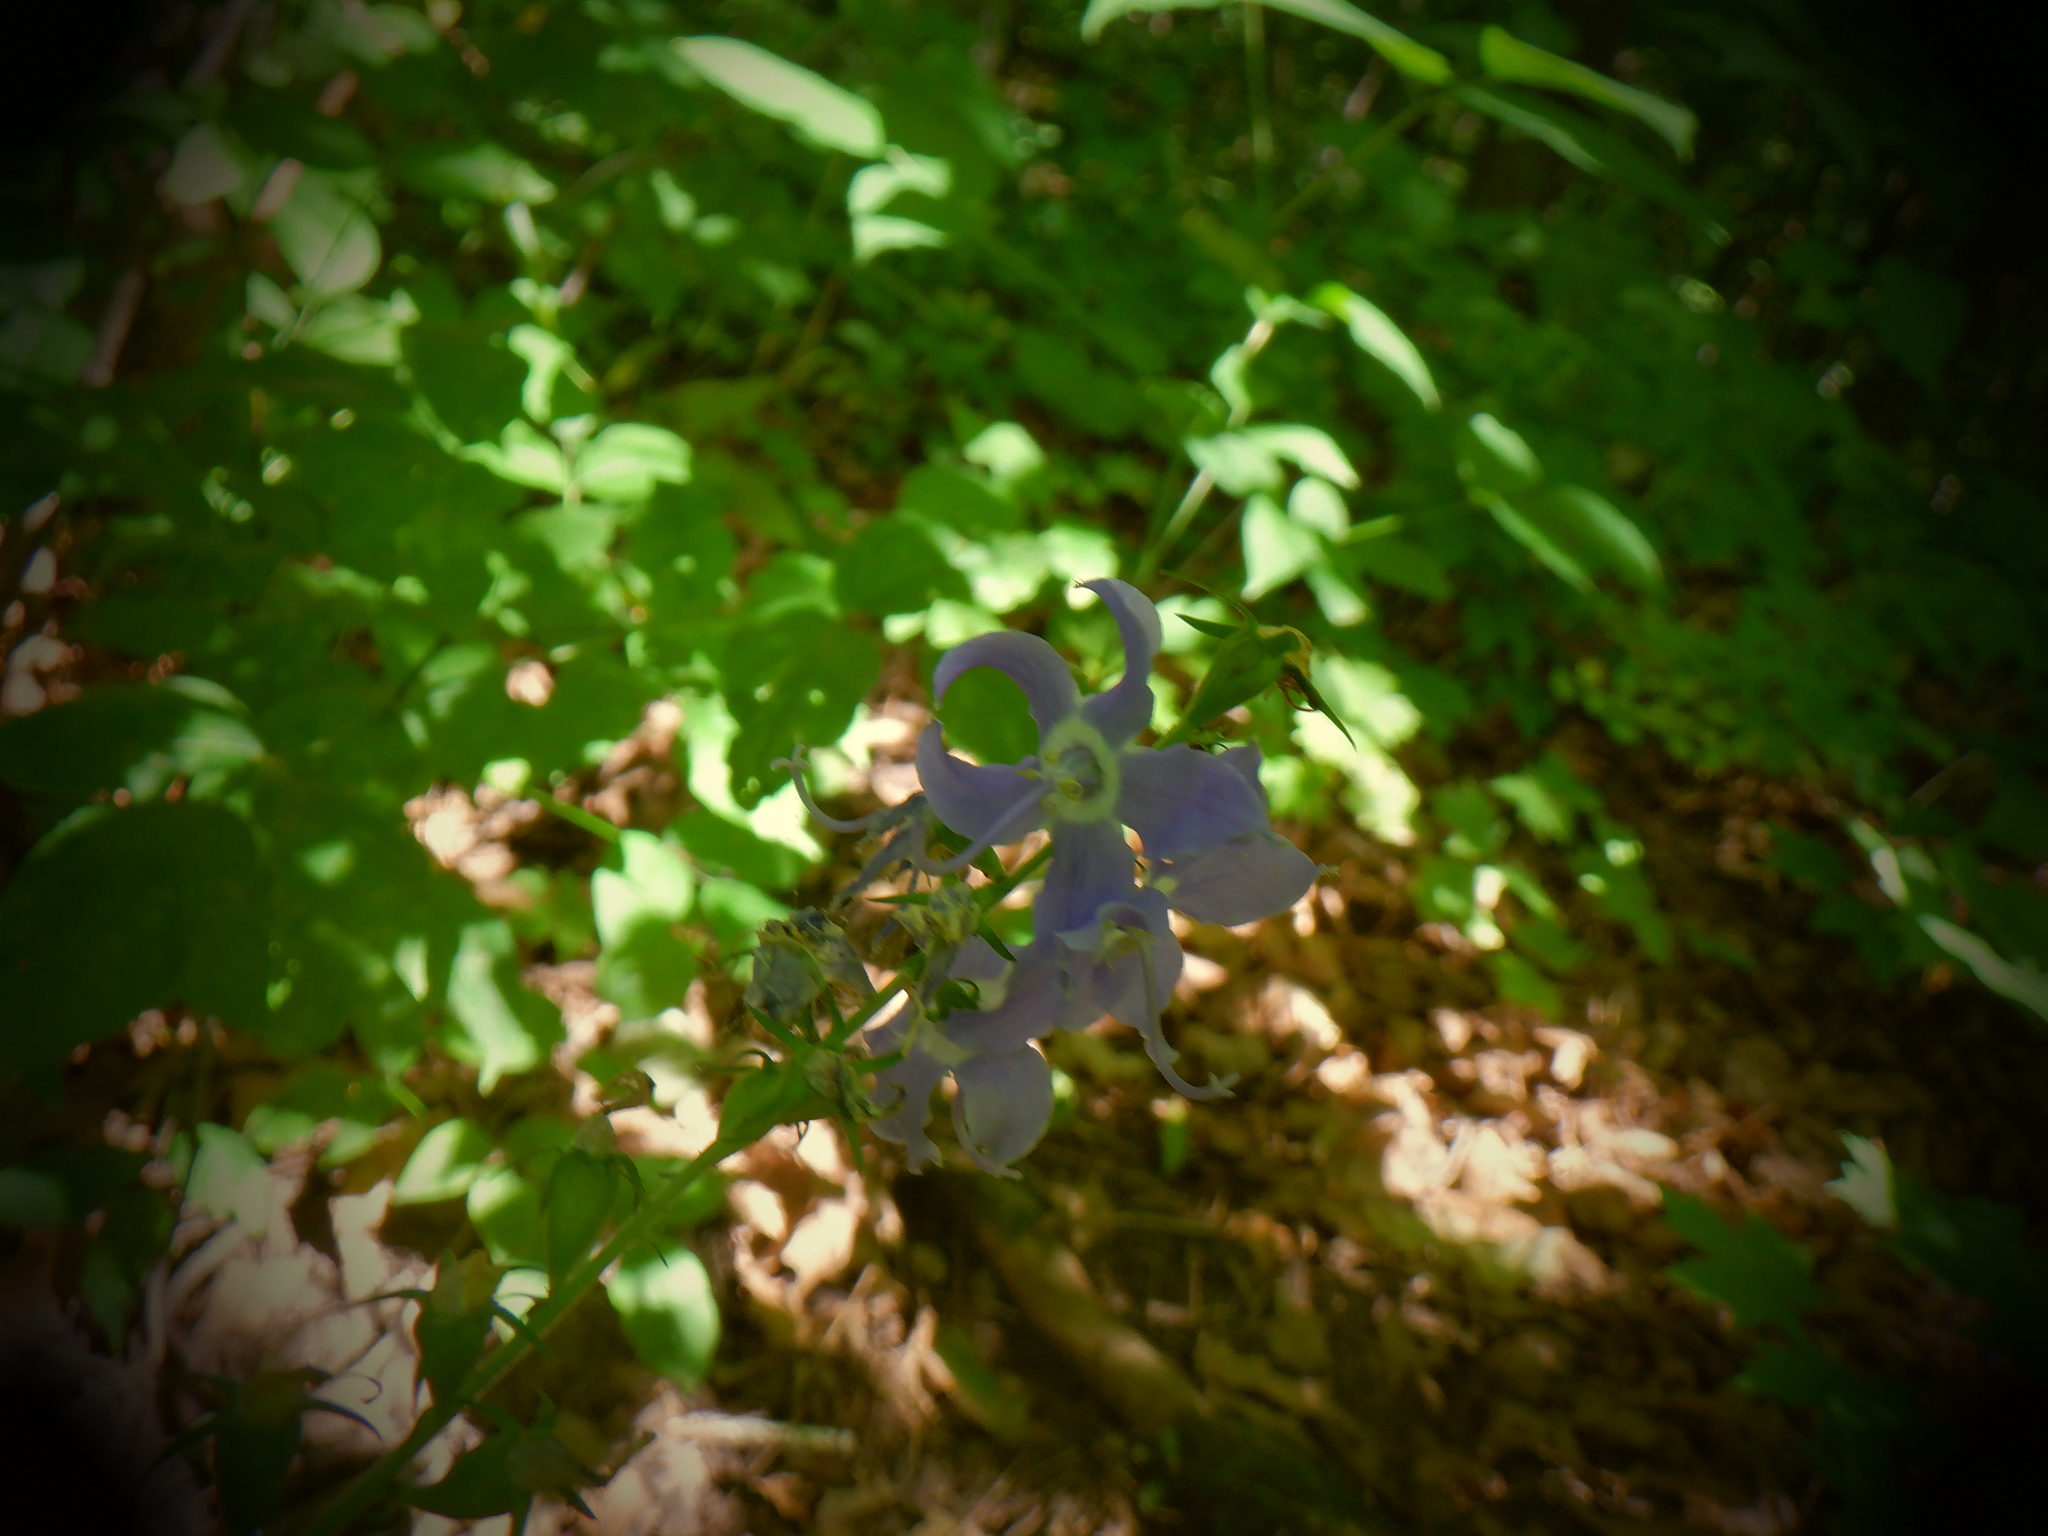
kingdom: Plantae
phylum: Tracheophyta
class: Magnoliopsida
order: Asterales
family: Campanulaceae
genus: Campanulastrum
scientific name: Campanulastrum americanum
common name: American bellflower
